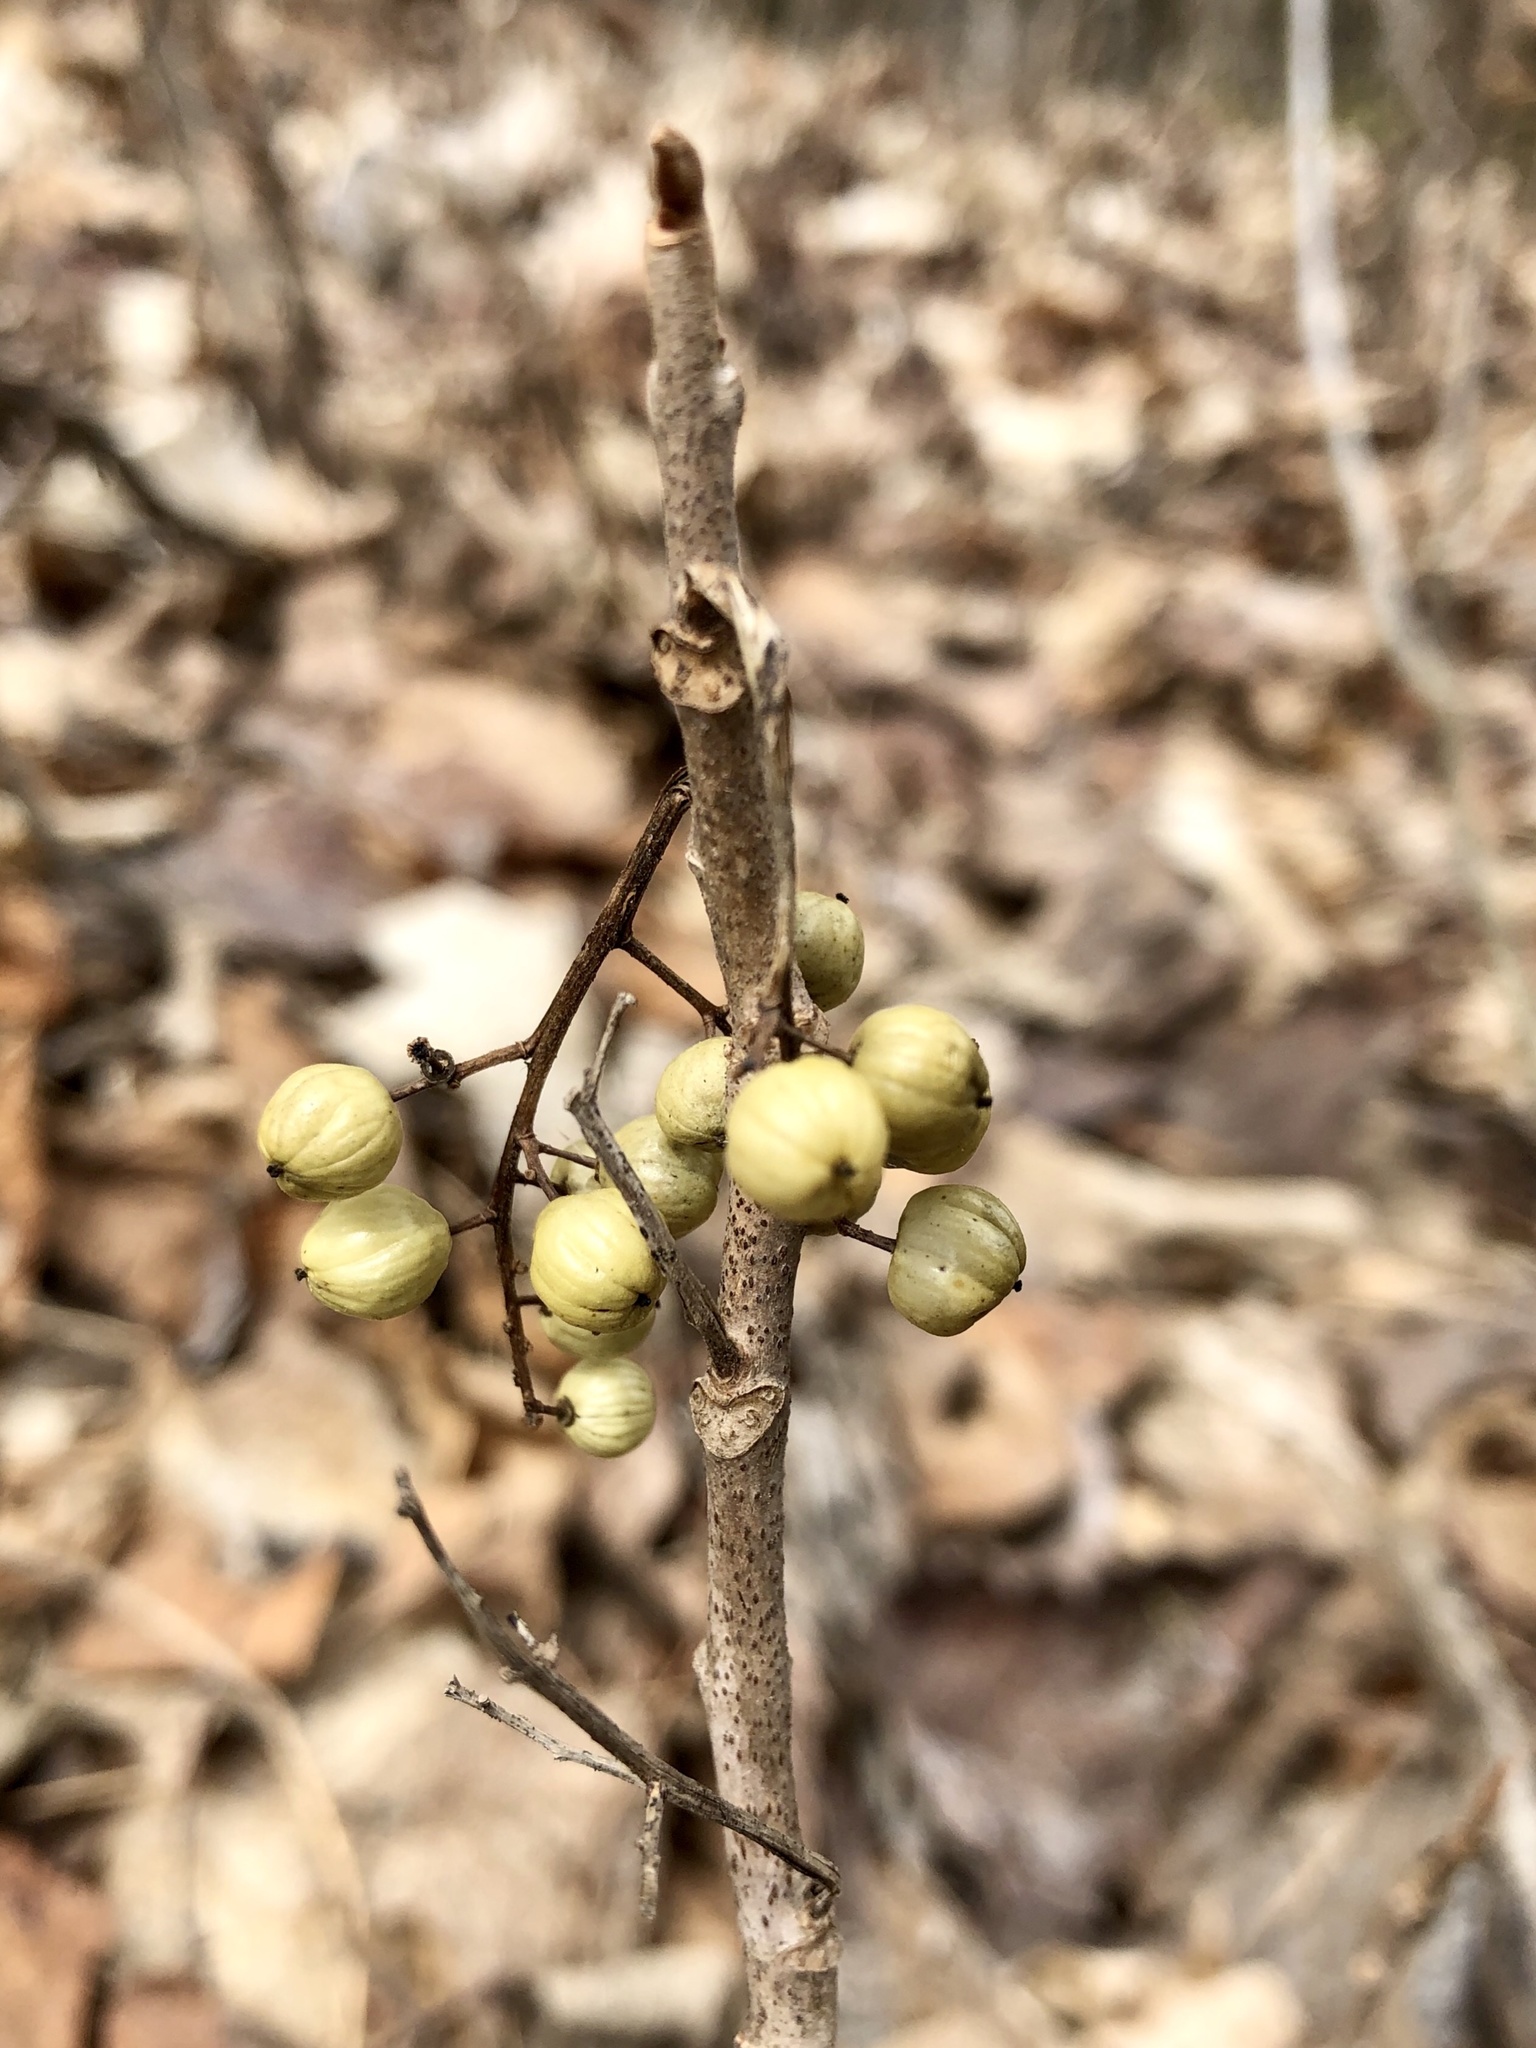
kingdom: Plantae
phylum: Tracheophyta
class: Magnoliopsida
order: Sapindales
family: Anacardiaceae
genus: Toxicodendron
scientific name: Toxicodendron rydbergii
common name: Rydberg's poison-ivy
